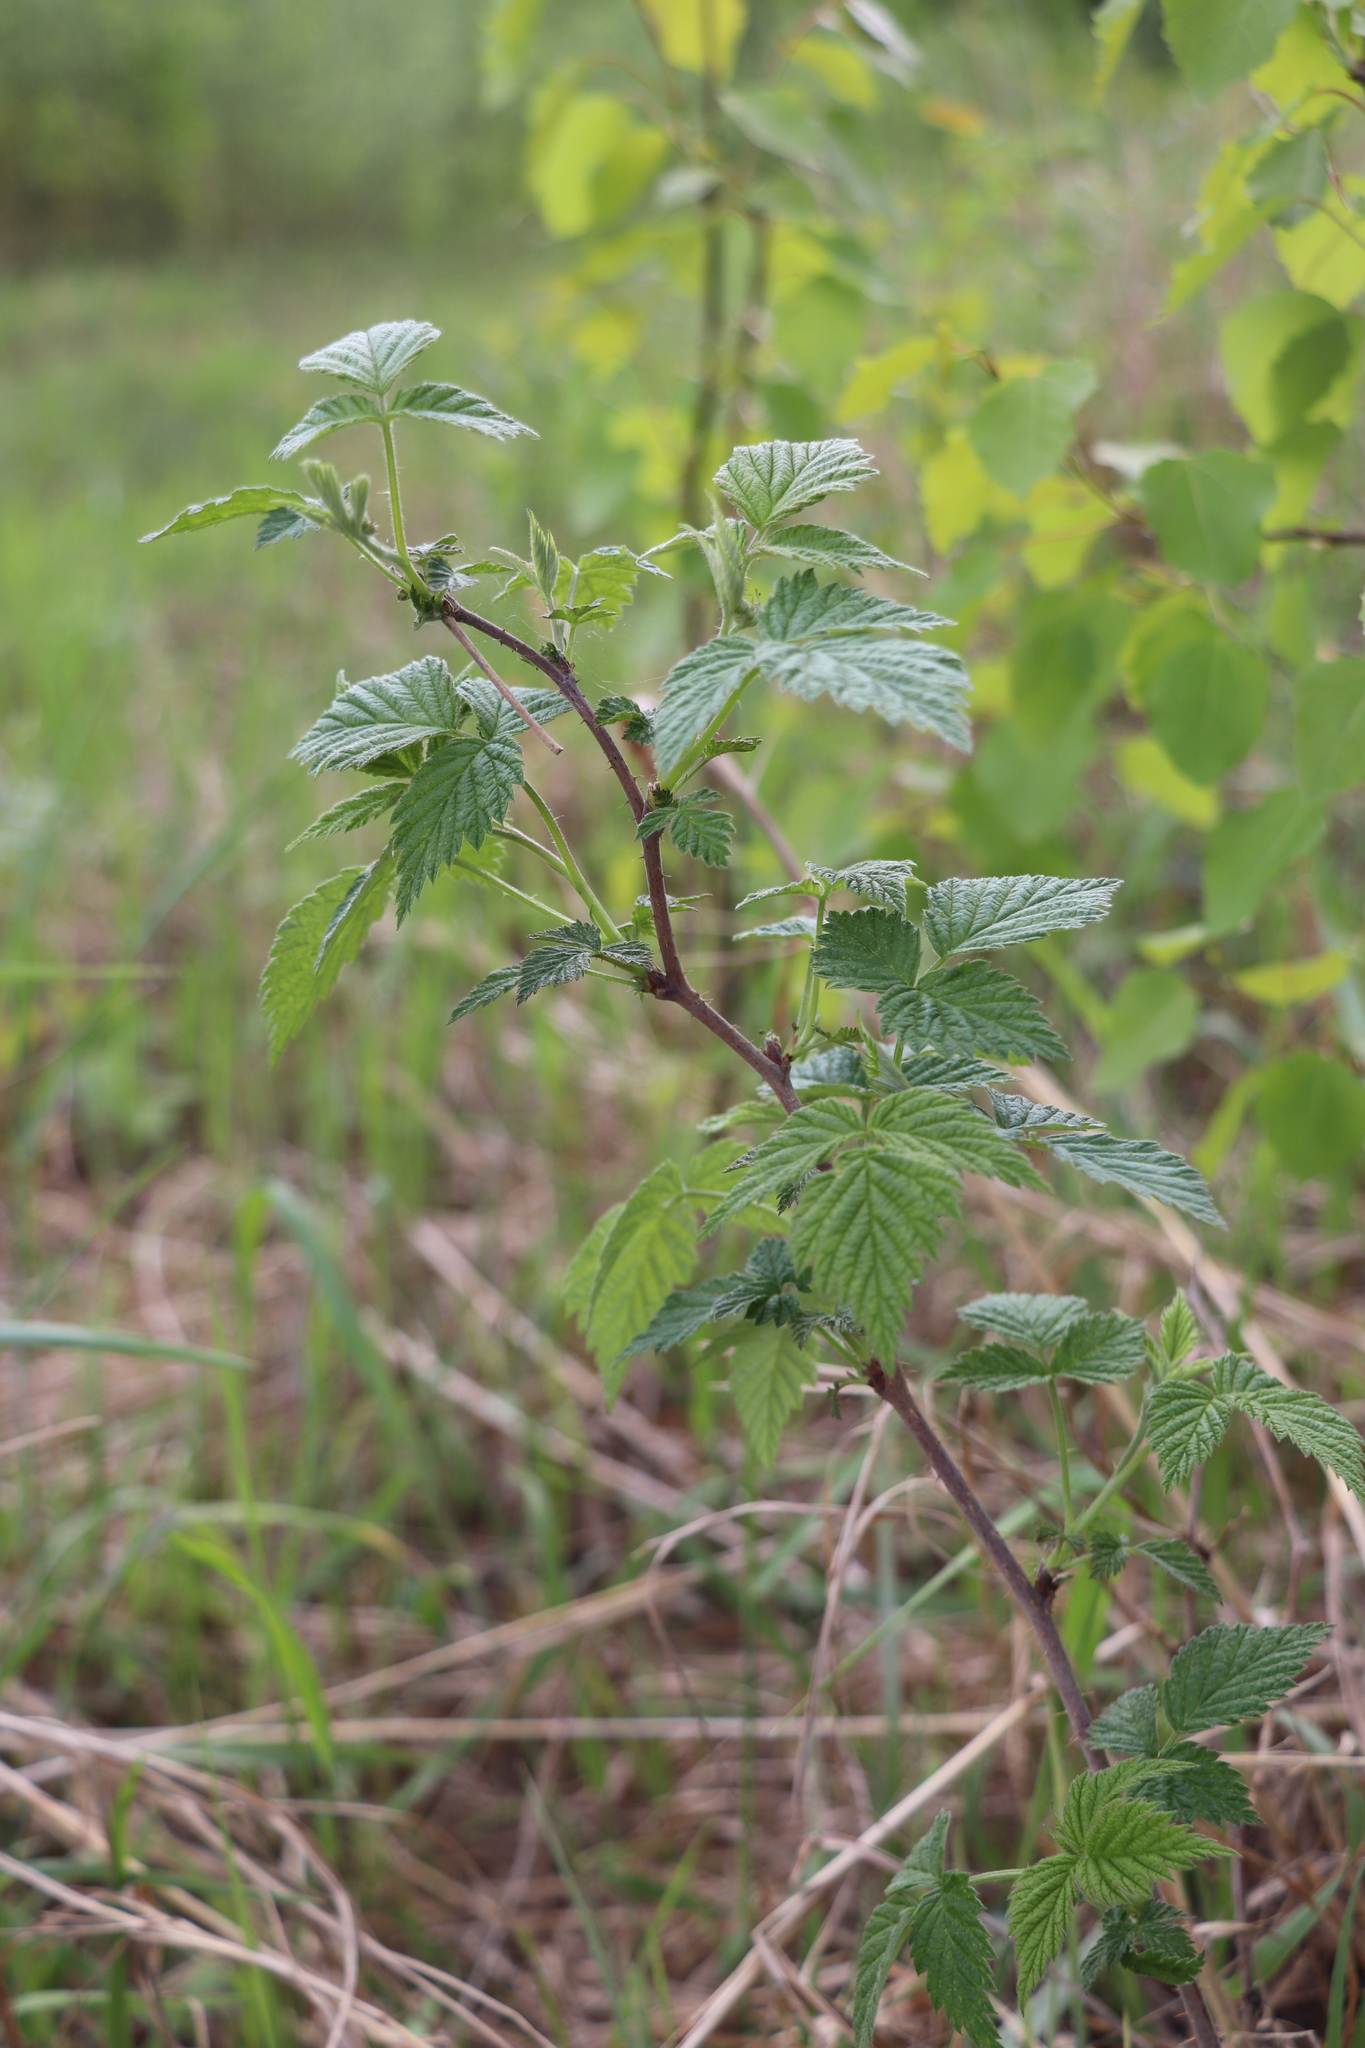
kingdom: Plantae
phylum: Tracheophyta
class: Magnoliopsida
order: Rosales
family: Rosaceae
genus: Rubus
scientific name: Rubus idaeus
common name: Raspberry
